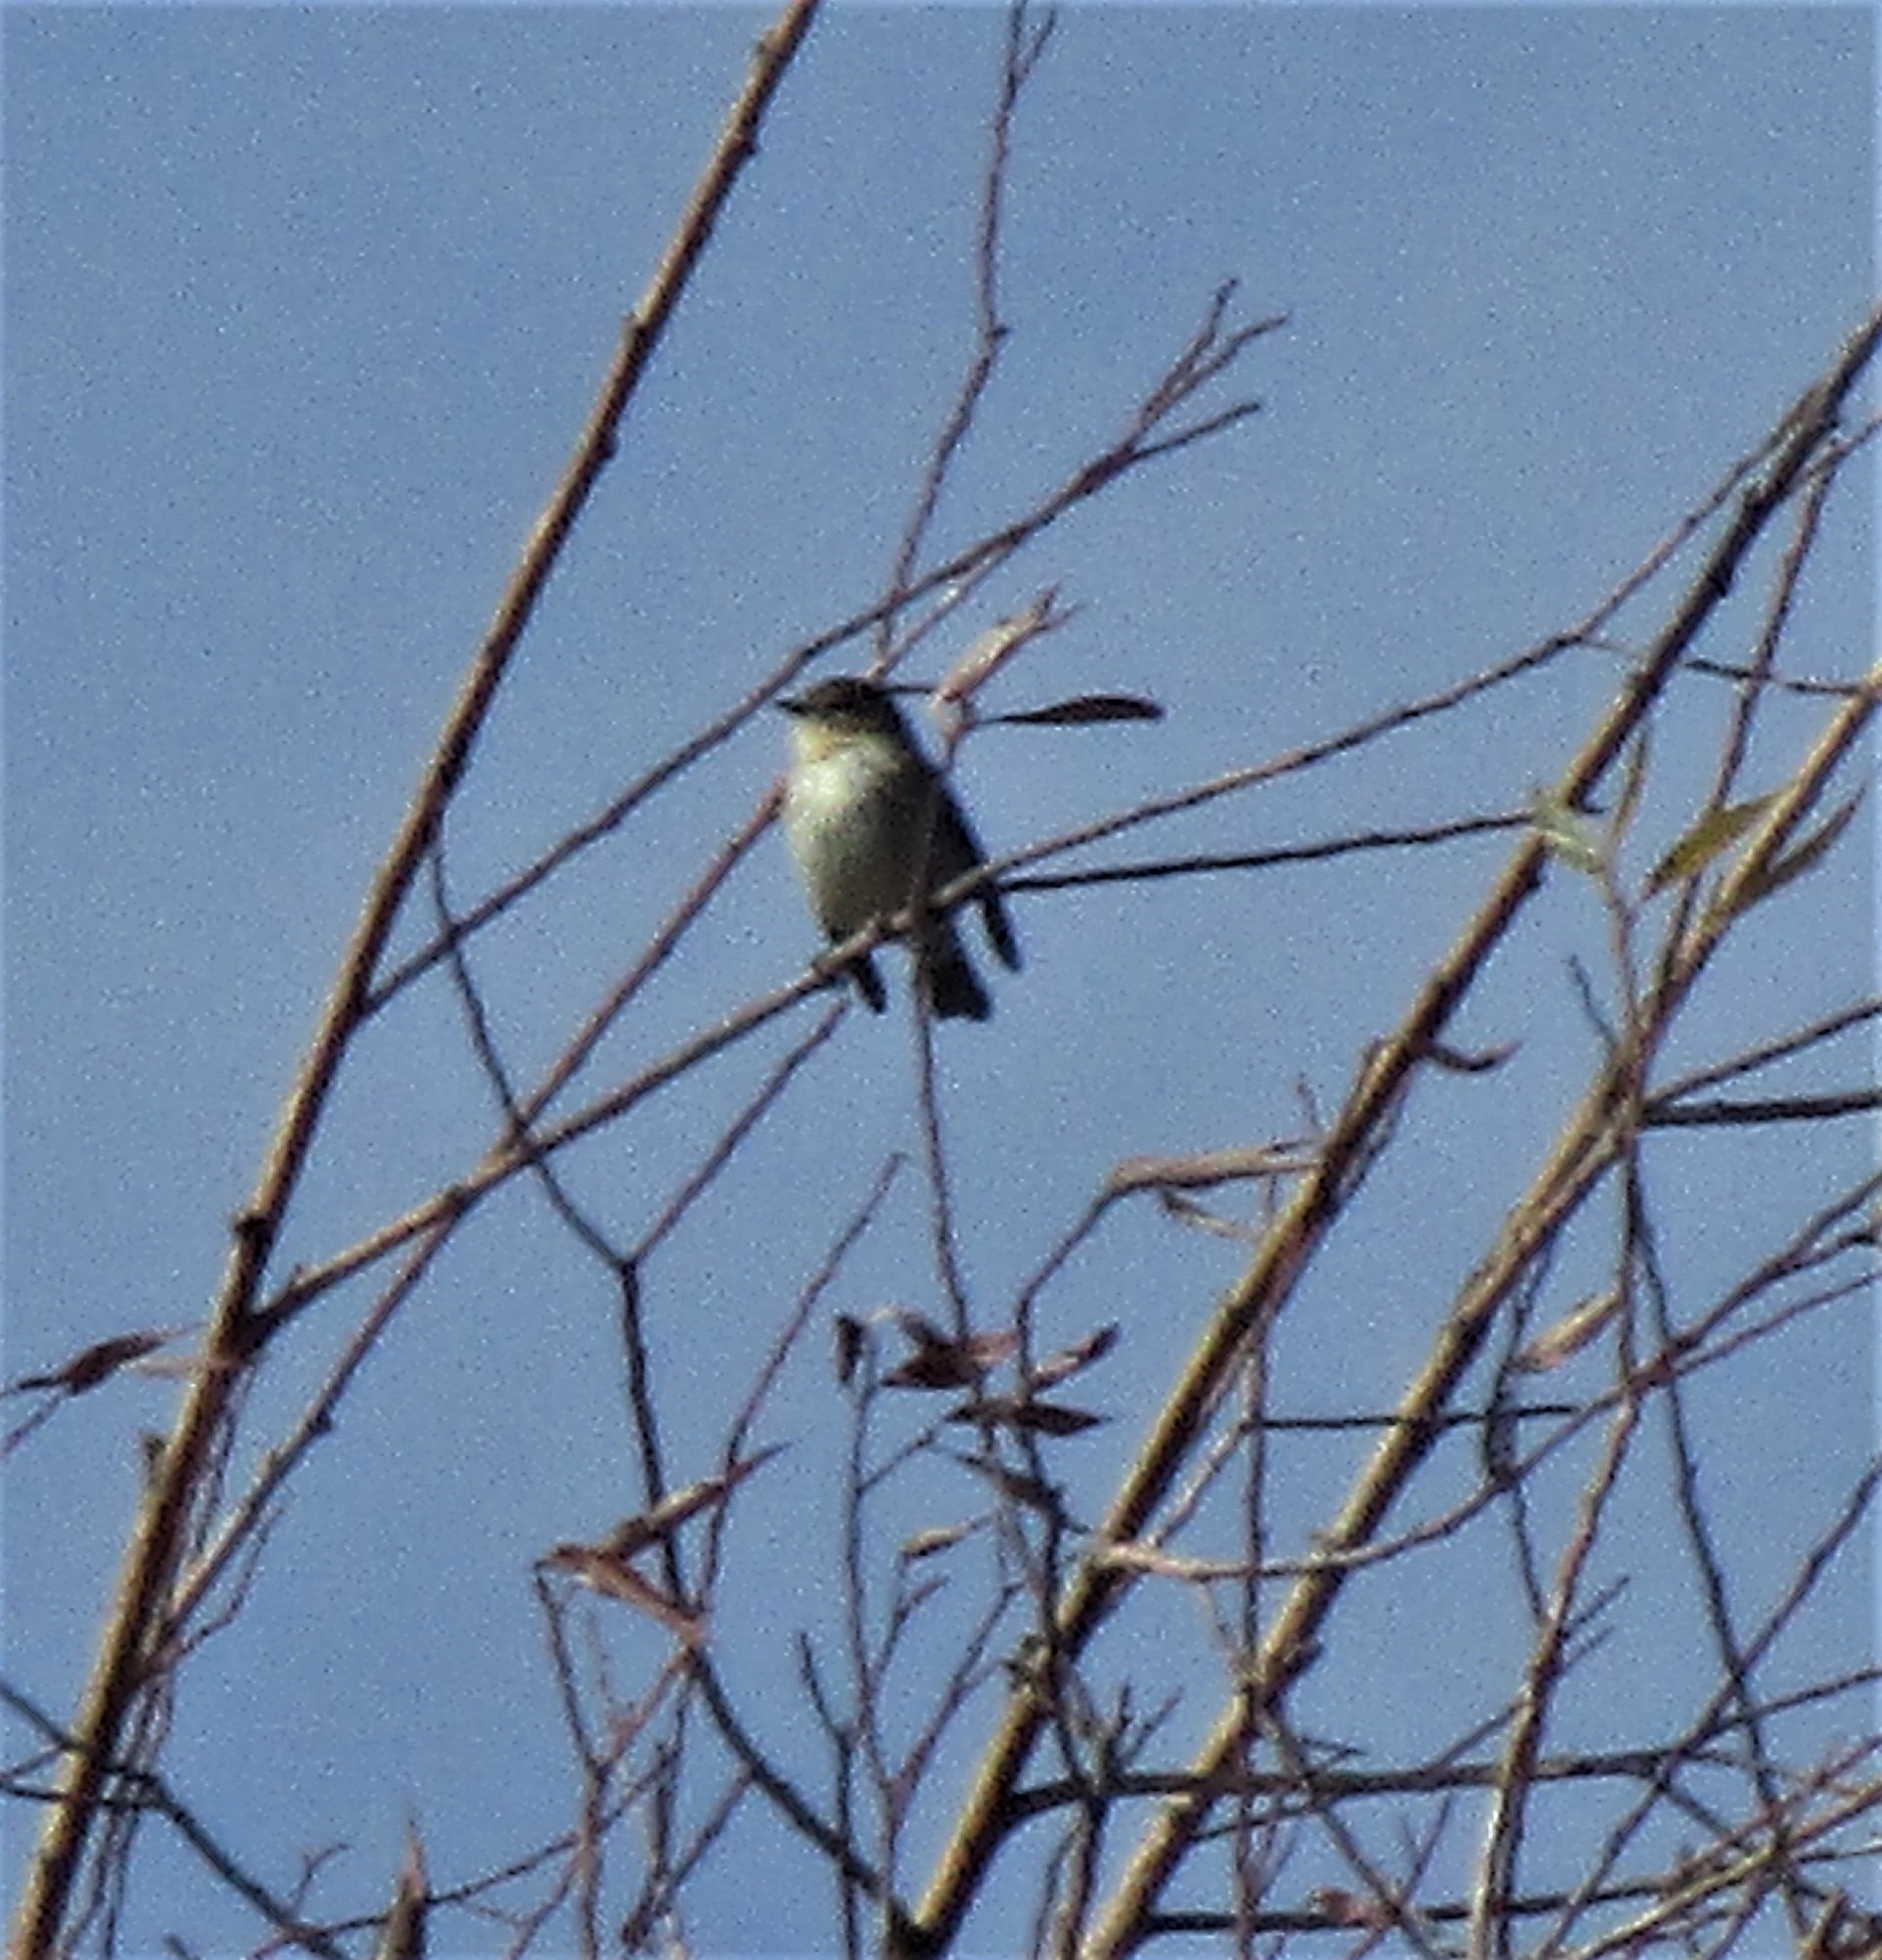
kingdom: Animalia
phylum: Chordata
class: Aves
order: Passeriformes
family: Parulidae
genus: Setophaga
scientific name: Setophaga coronata
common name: Myrtle warbler
